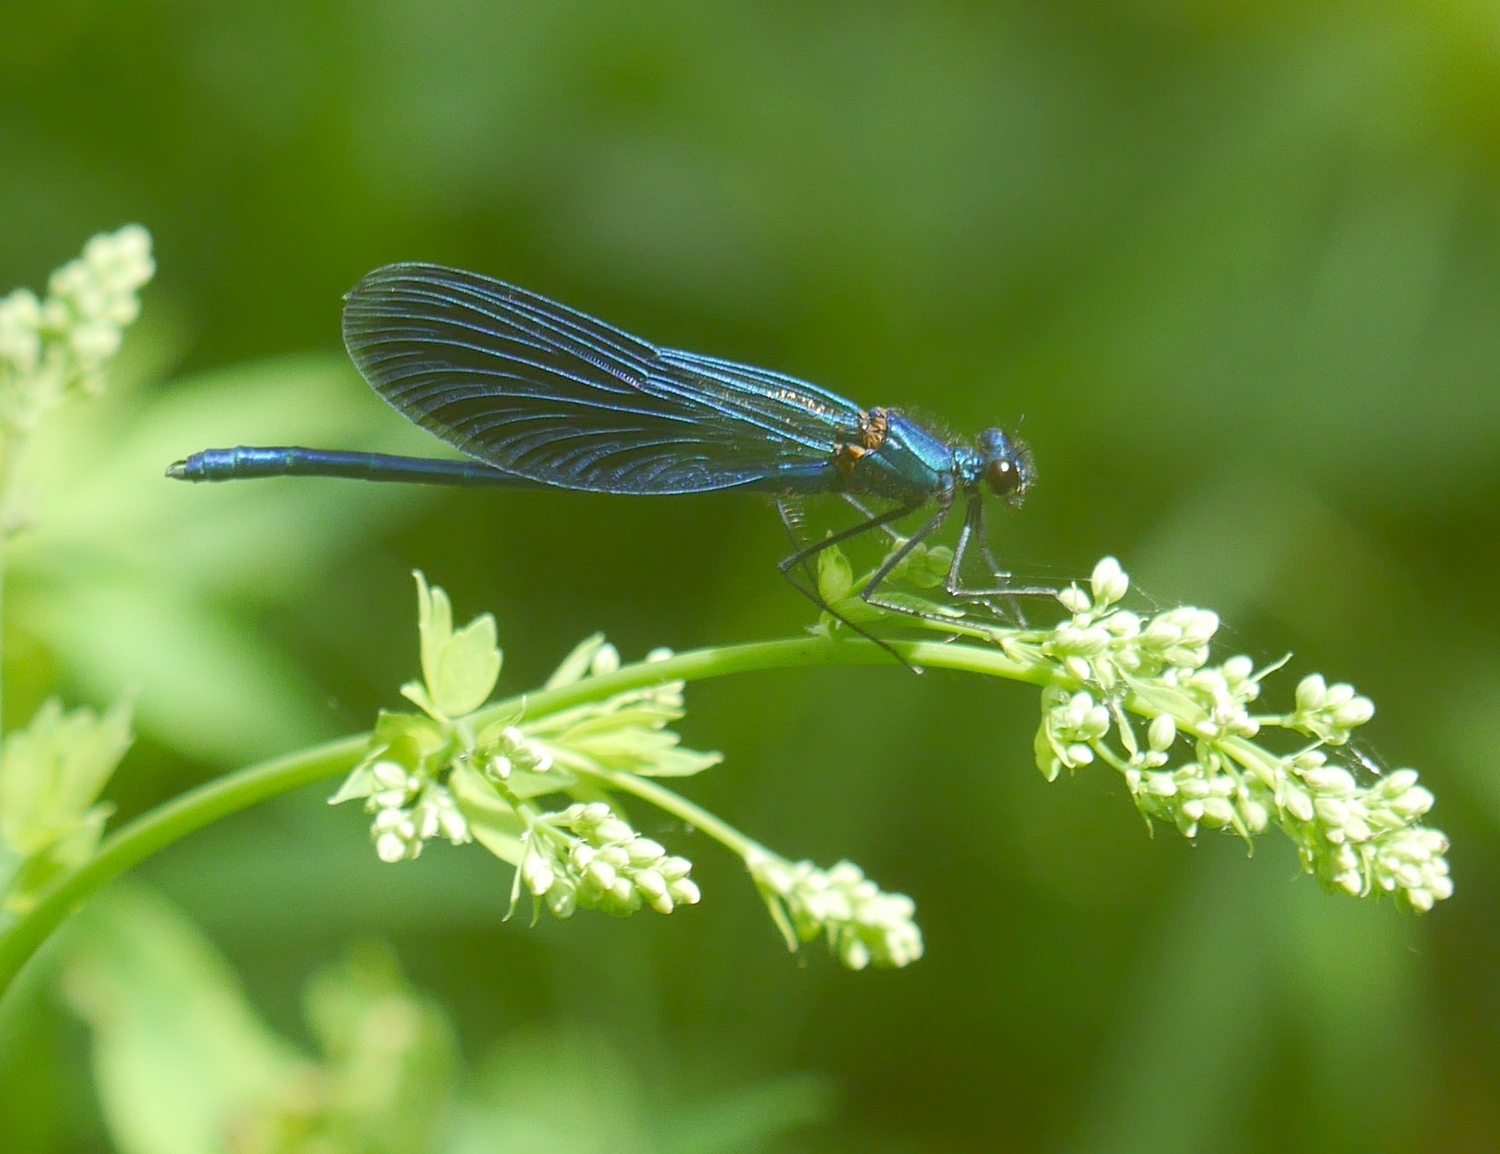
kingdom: Animalia
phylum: Arthropoda
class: Insecta
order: Odonata
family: Calopterygidae
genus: Calopteryx
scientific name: Calopteryx splendens
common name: Banded demoiselle
